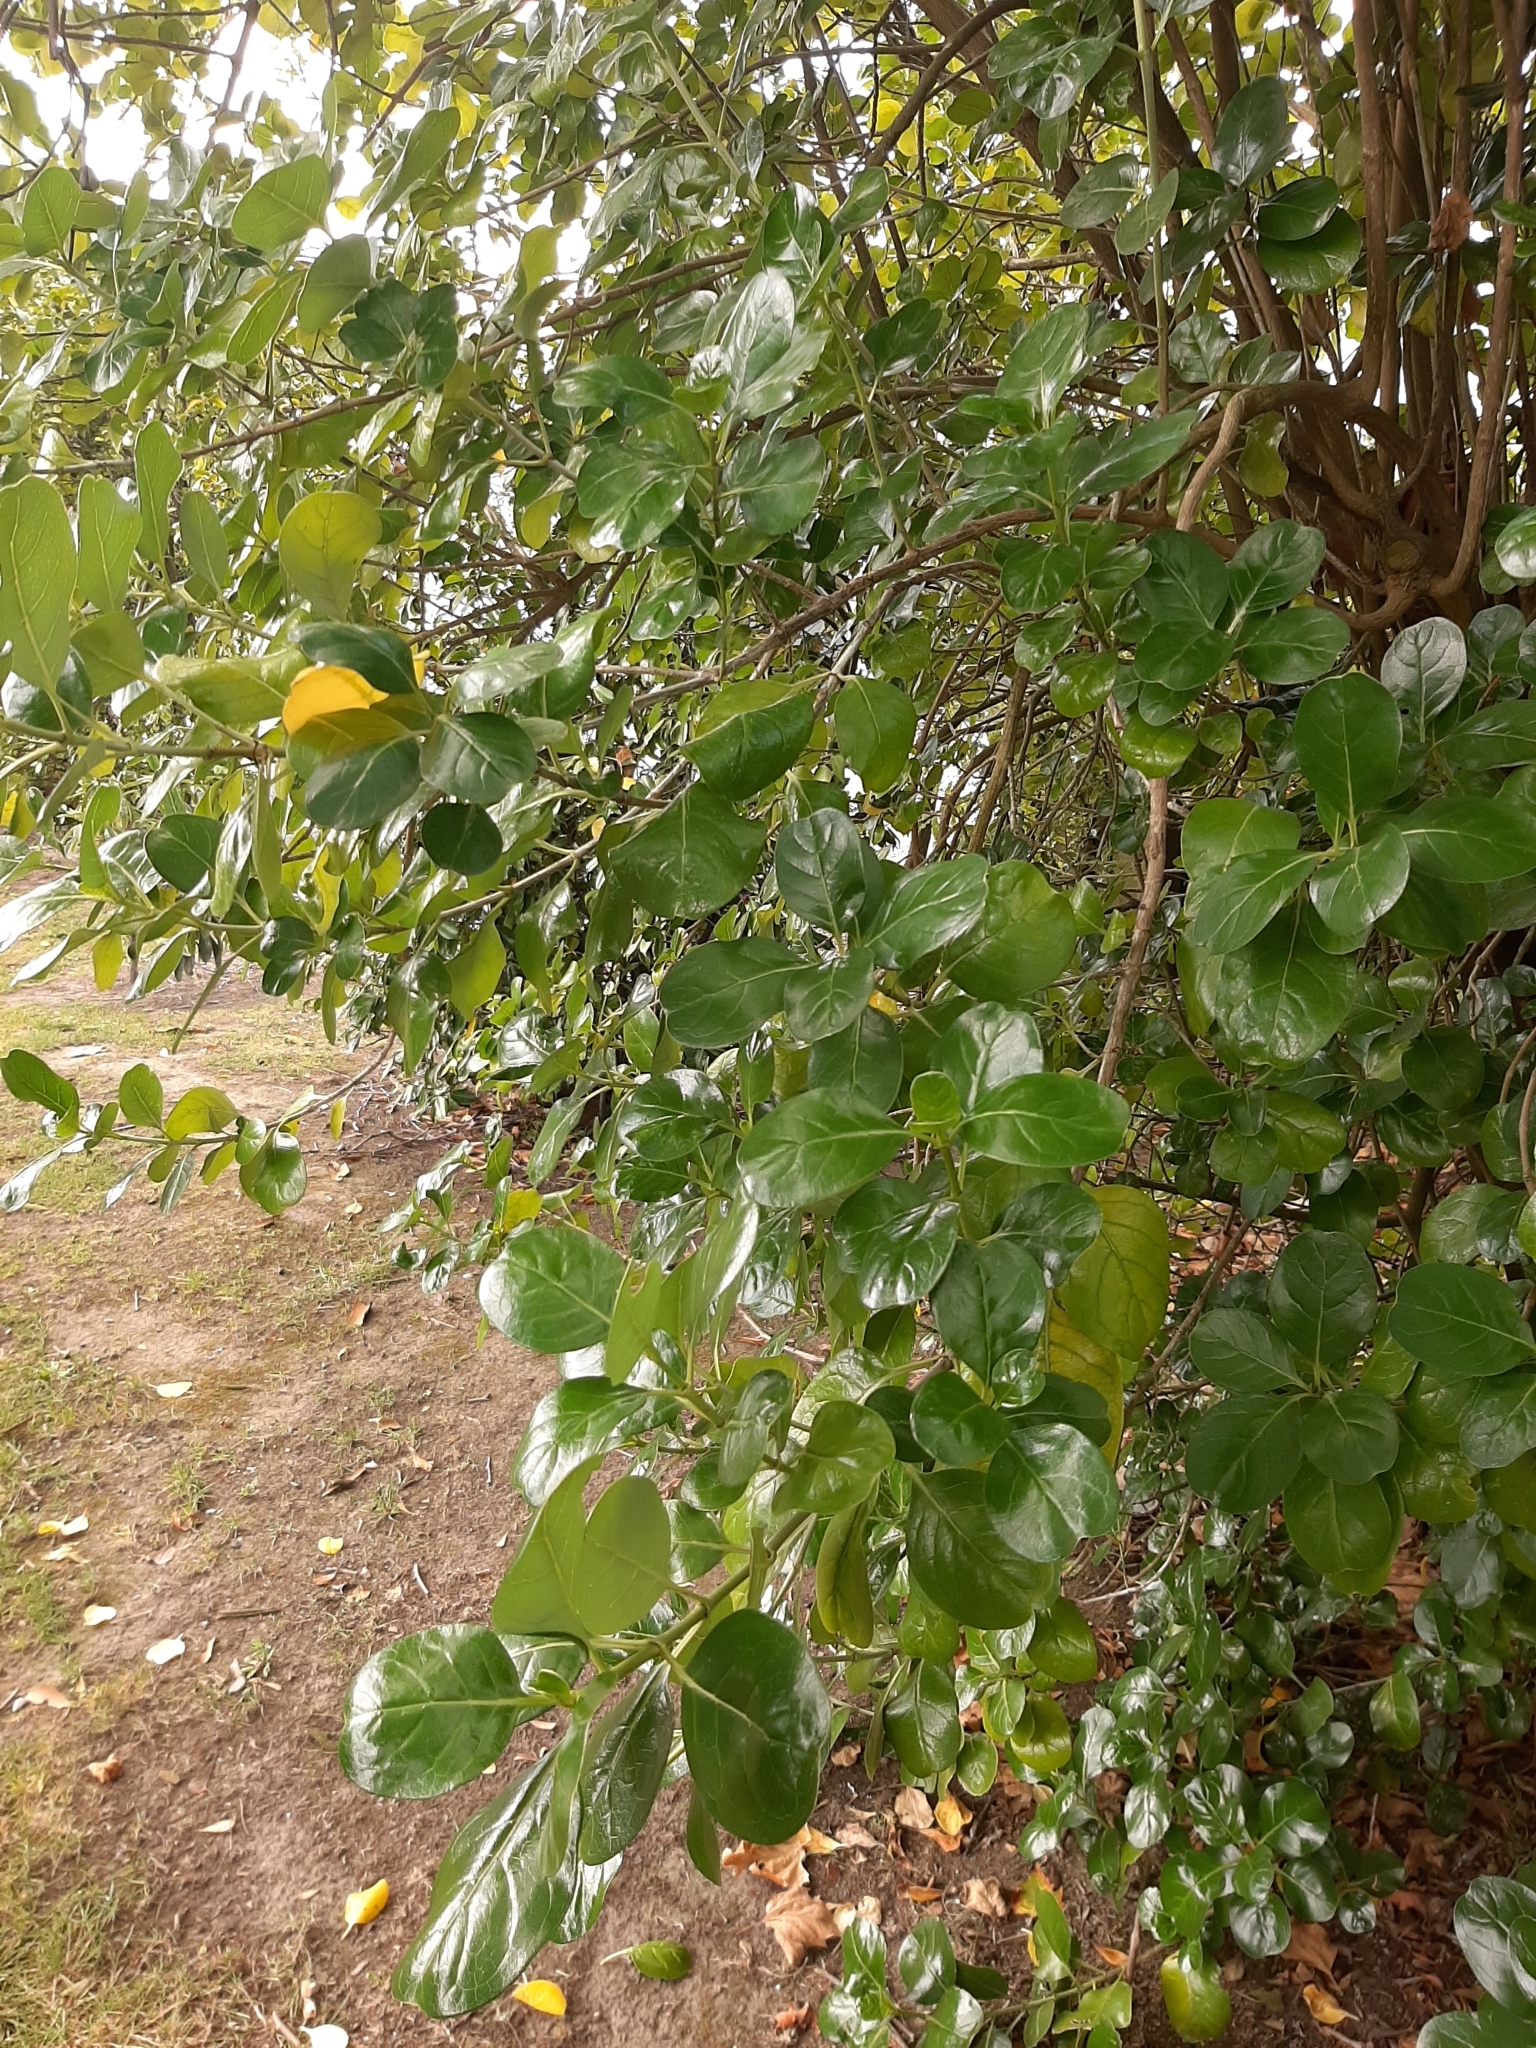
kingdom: Plantae
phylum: Tracheophyta
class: Magnoliopsida
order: Gentianales
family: Rubiaceae
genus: Coprosma
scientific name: Coprosma repens
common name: Tree bedstraw
